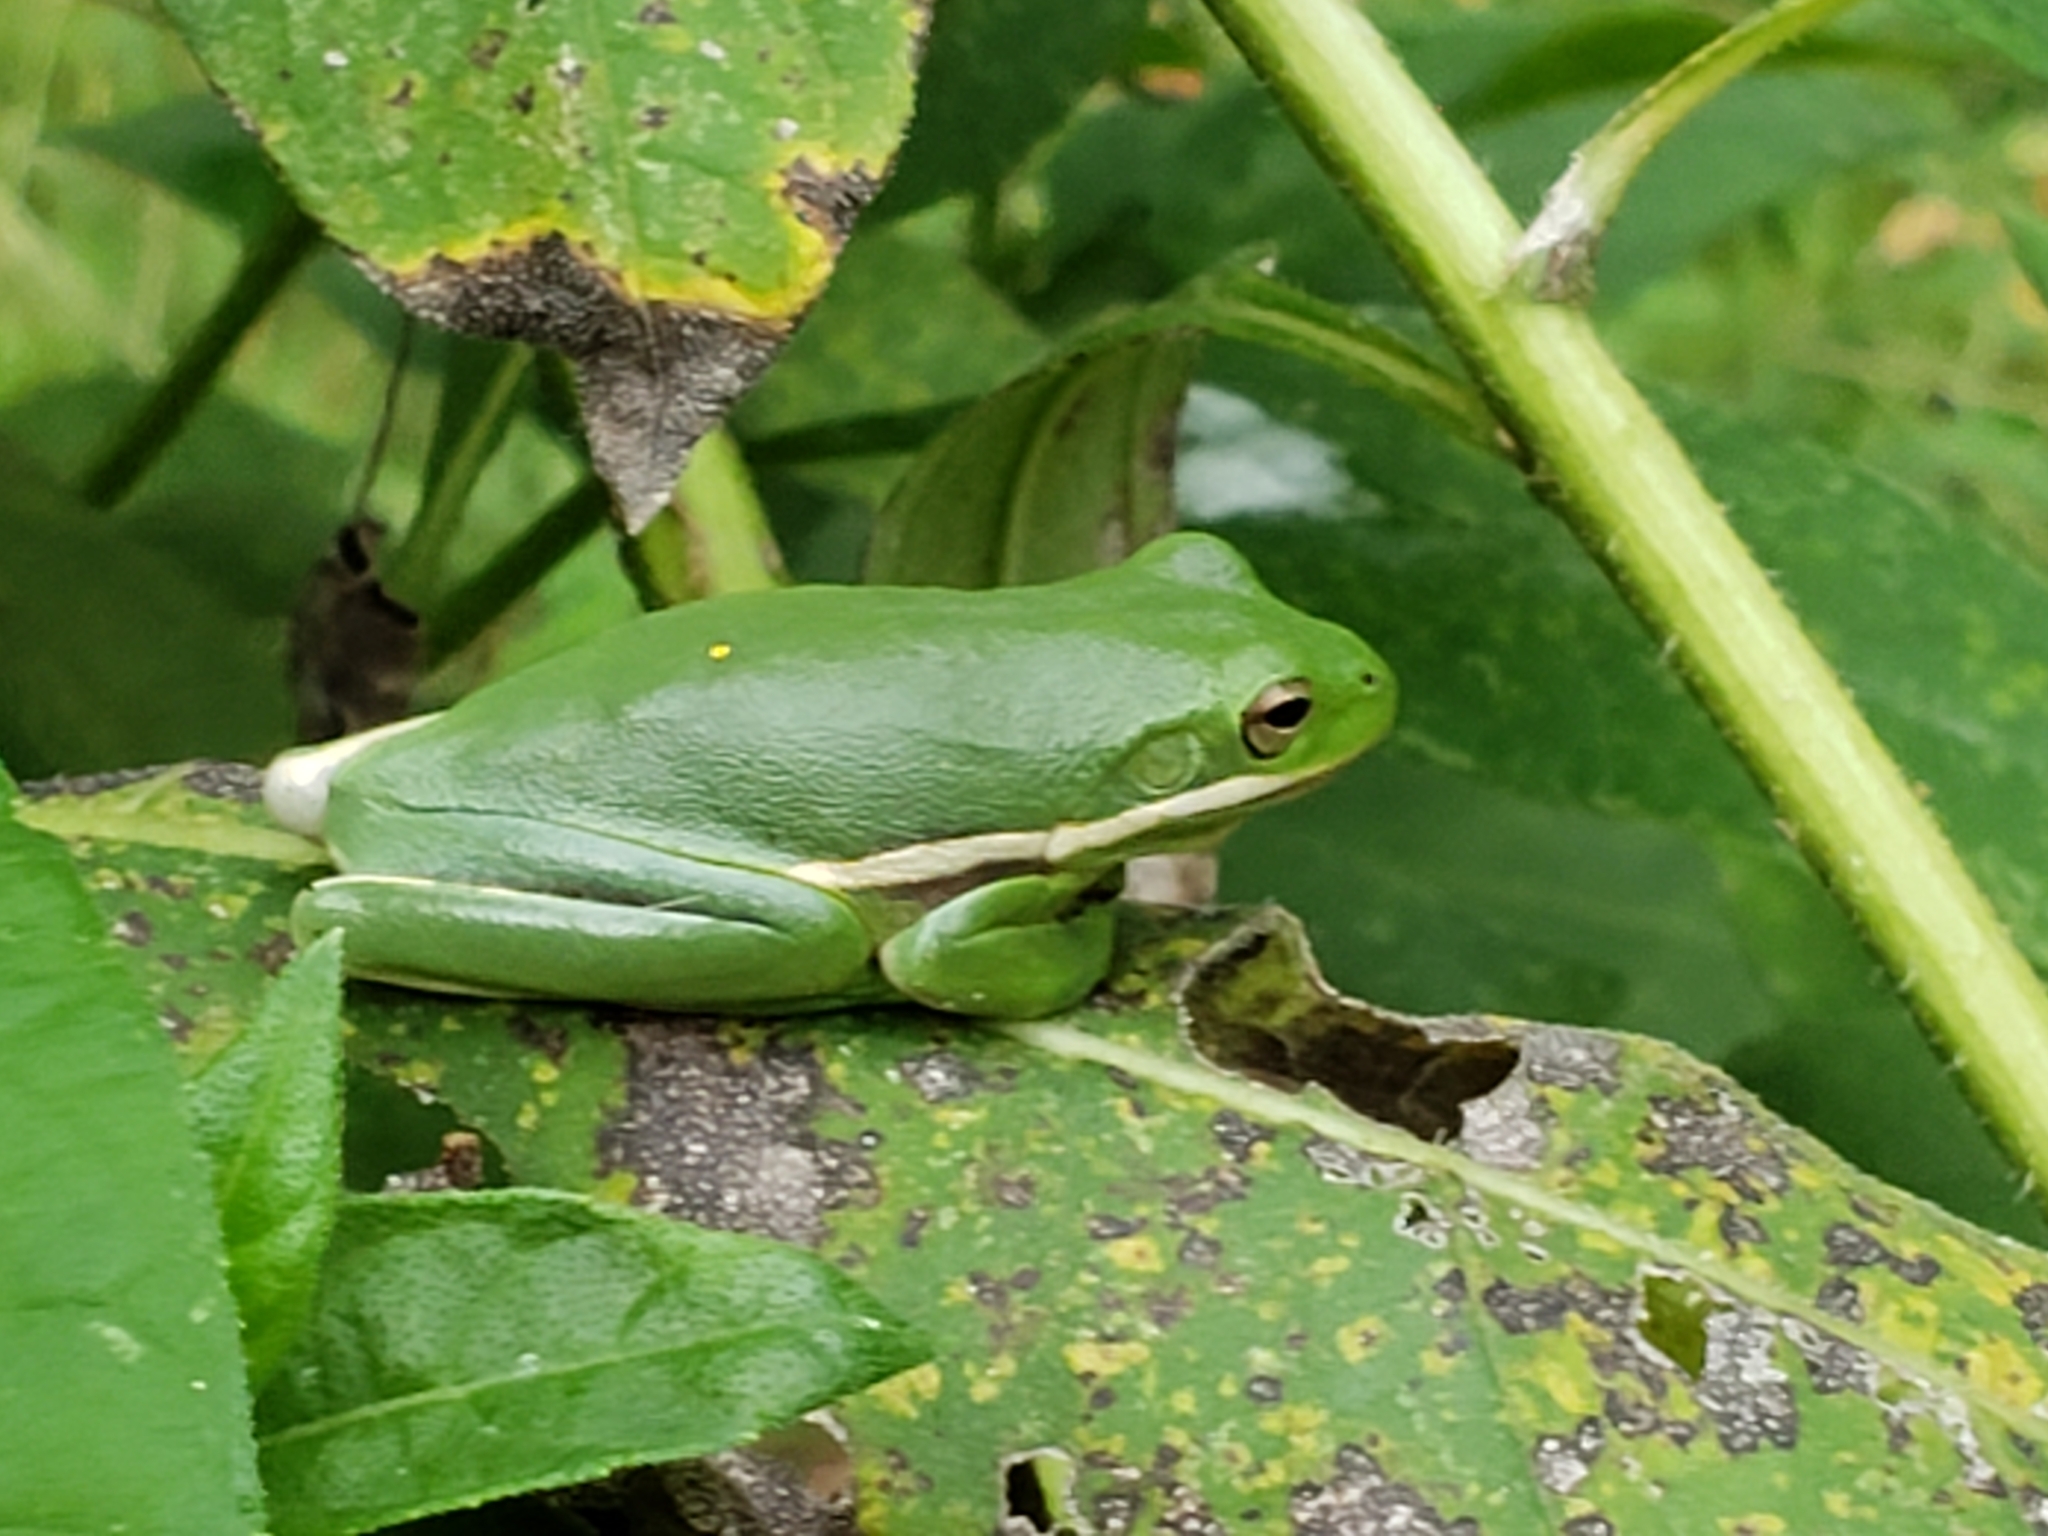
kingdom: Animalia
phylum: Chordata
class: Amphibia
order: Anura
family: Hylidae
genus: Dryophytes
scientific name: Dryophytes cinereus
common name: Green treefrog
